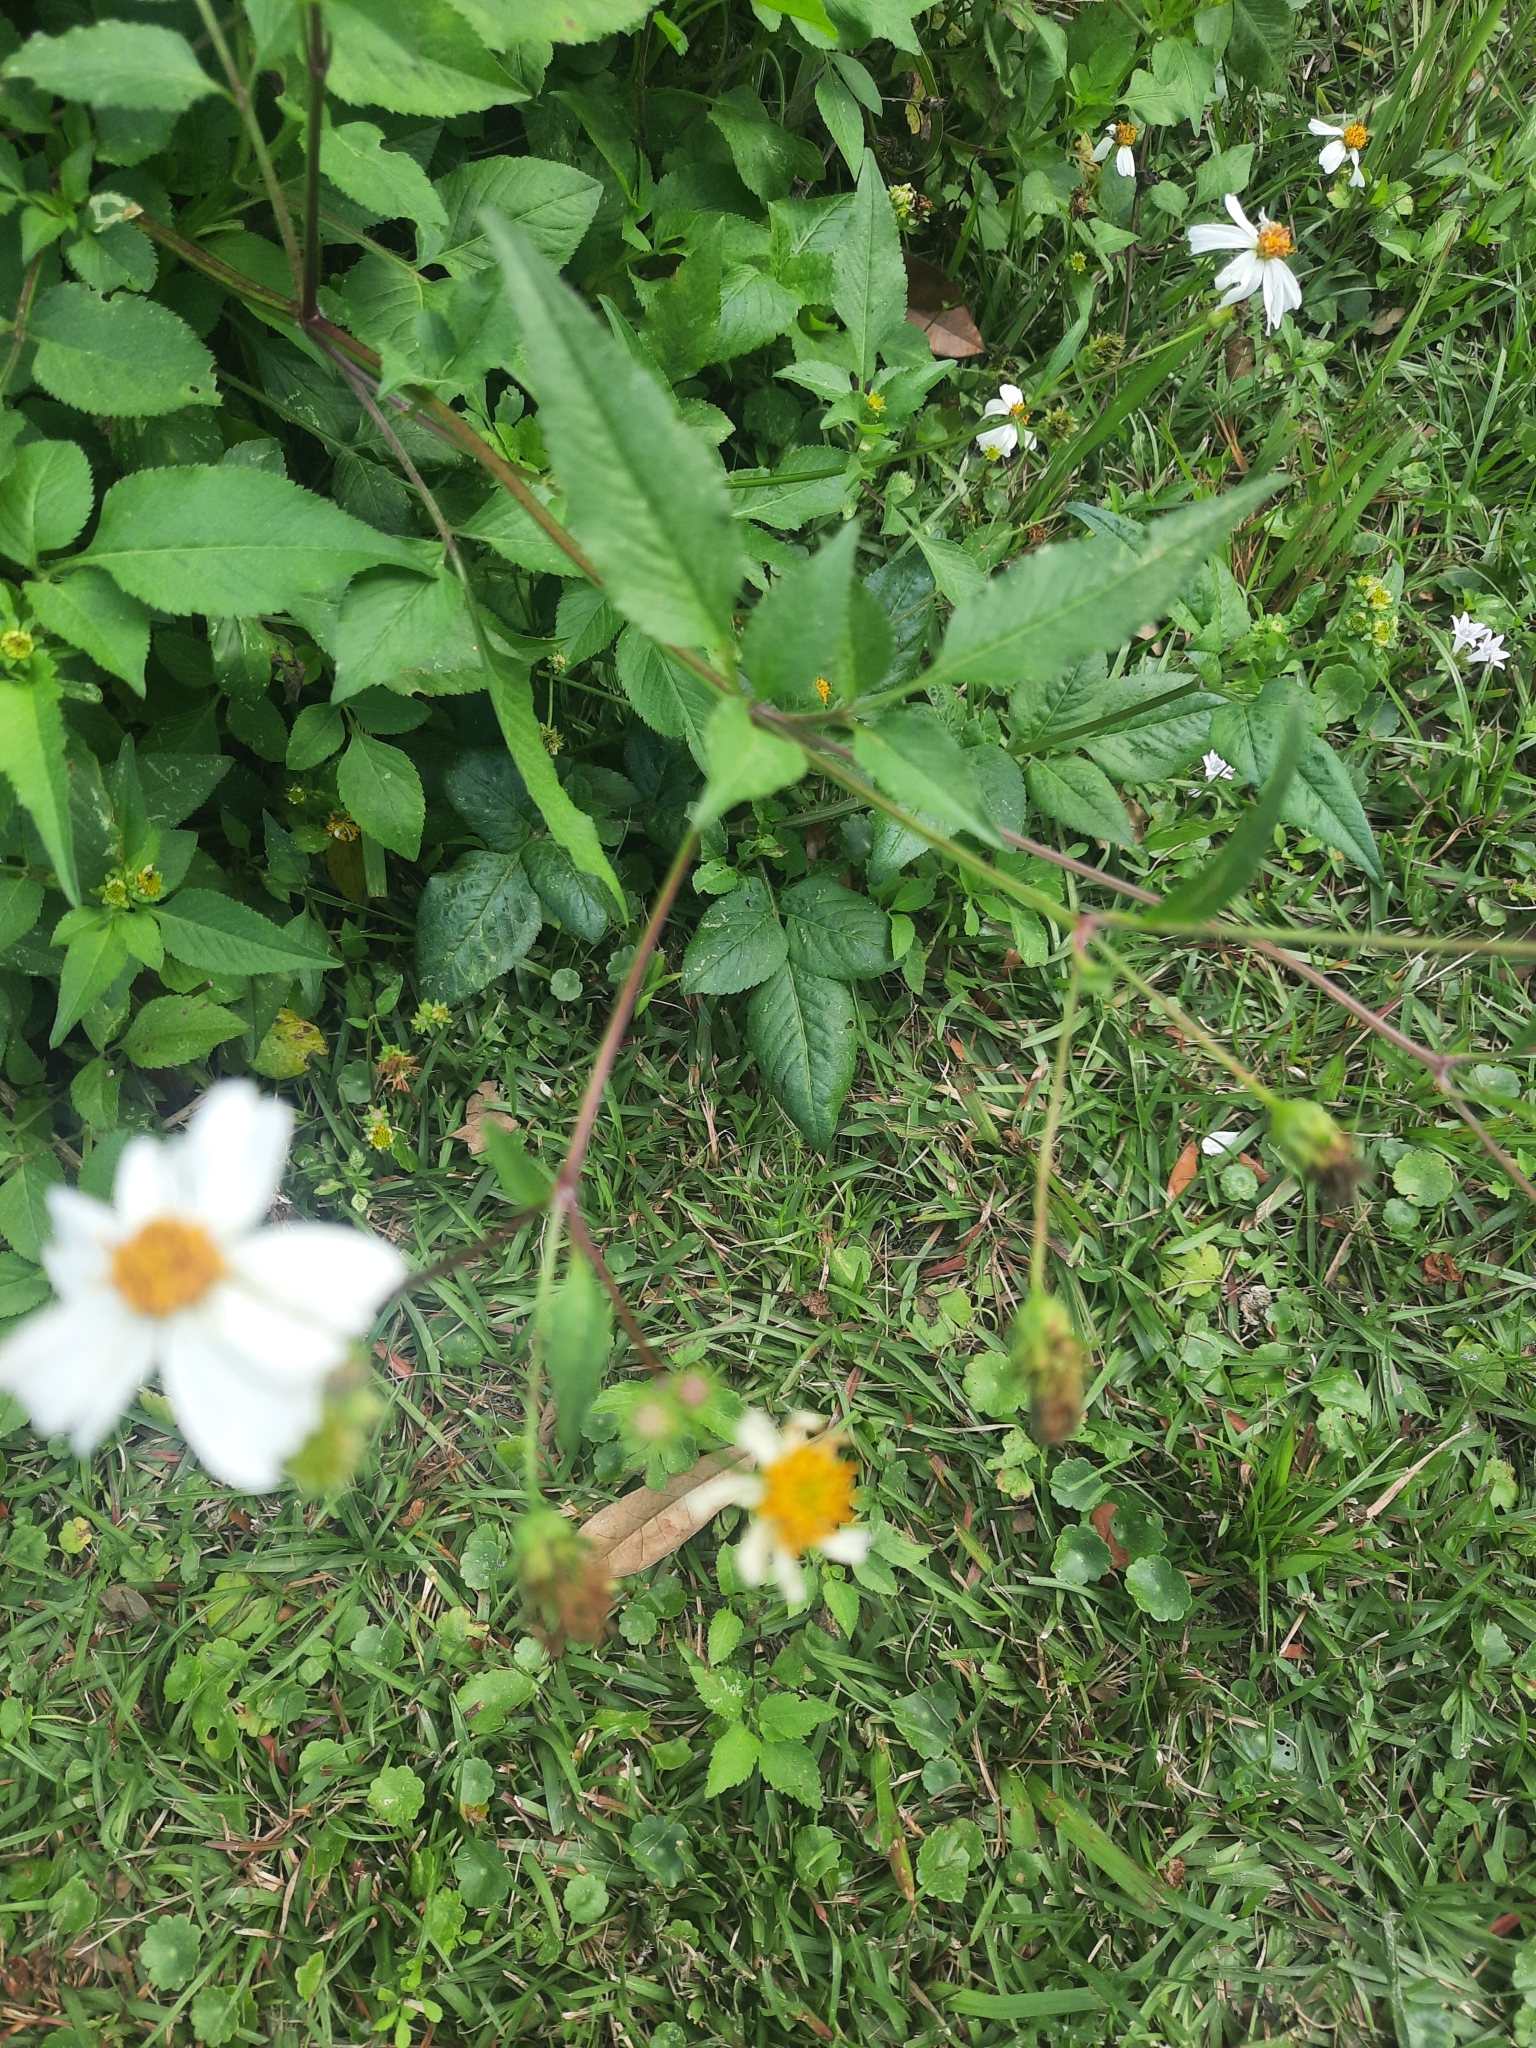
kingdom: Plantae
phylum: Tracheophyta
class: Magnoliopsida
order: Asterales
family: Asteraceae
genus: Bidens
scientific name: Bidens alba
